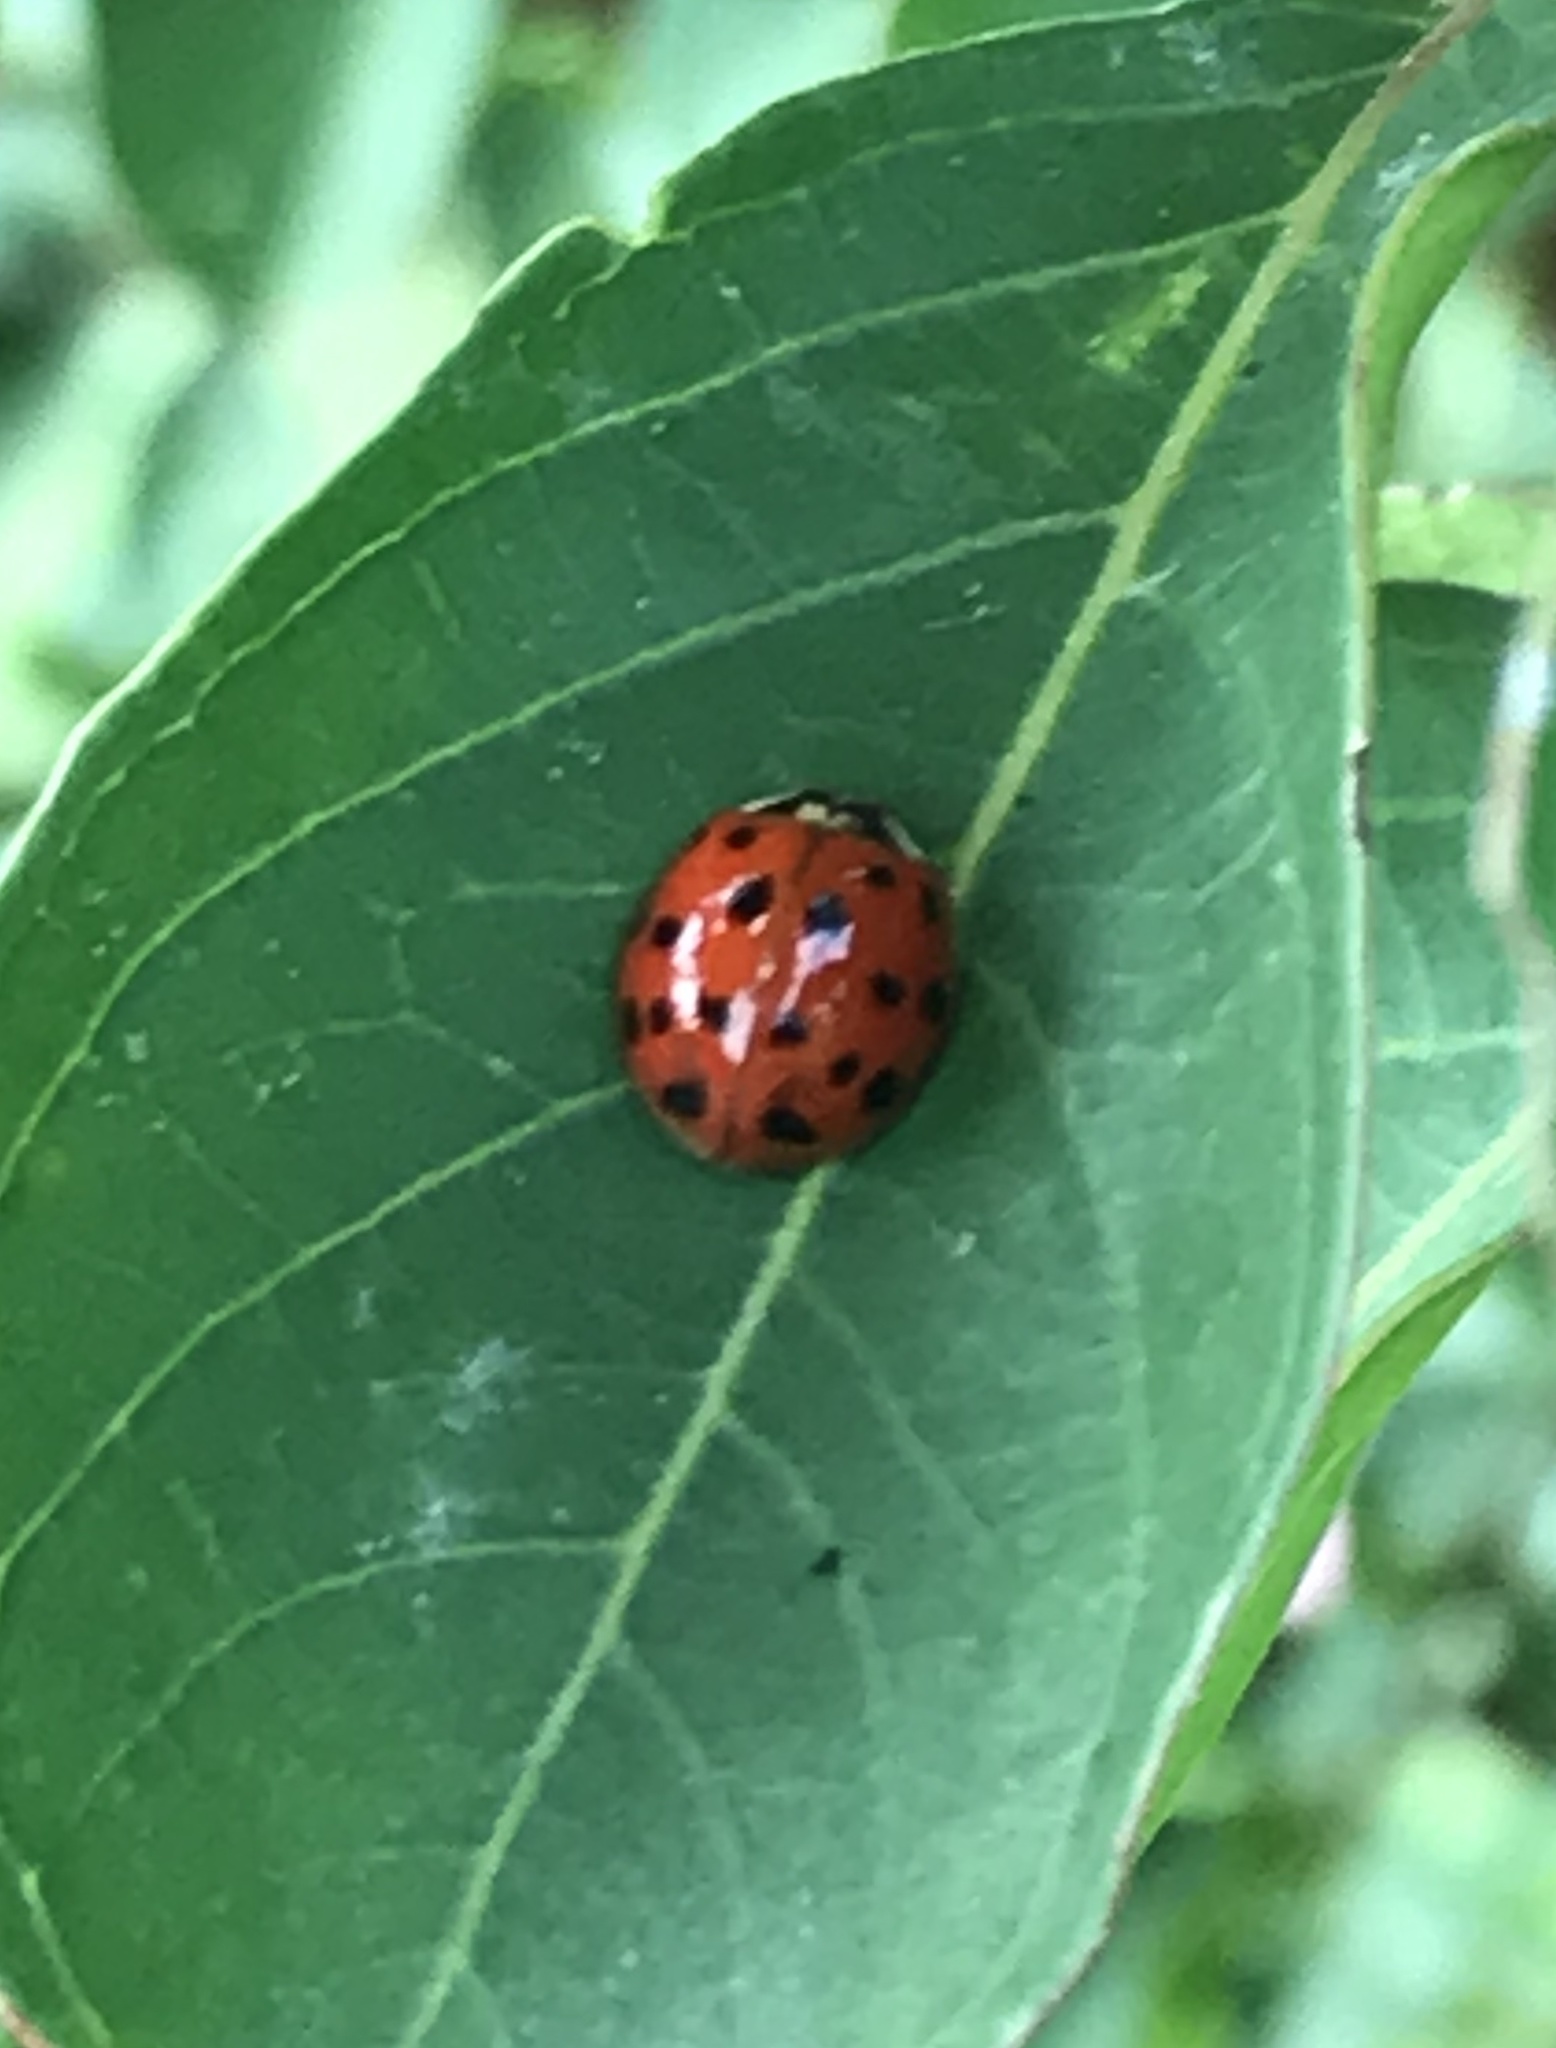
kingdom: Animalia
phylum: Arthropoda
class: Insecta
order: Coleoptera
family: Coccinellidae
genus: Harmonia
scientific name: Harmonia axyridis
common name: Harlequin ladybird
